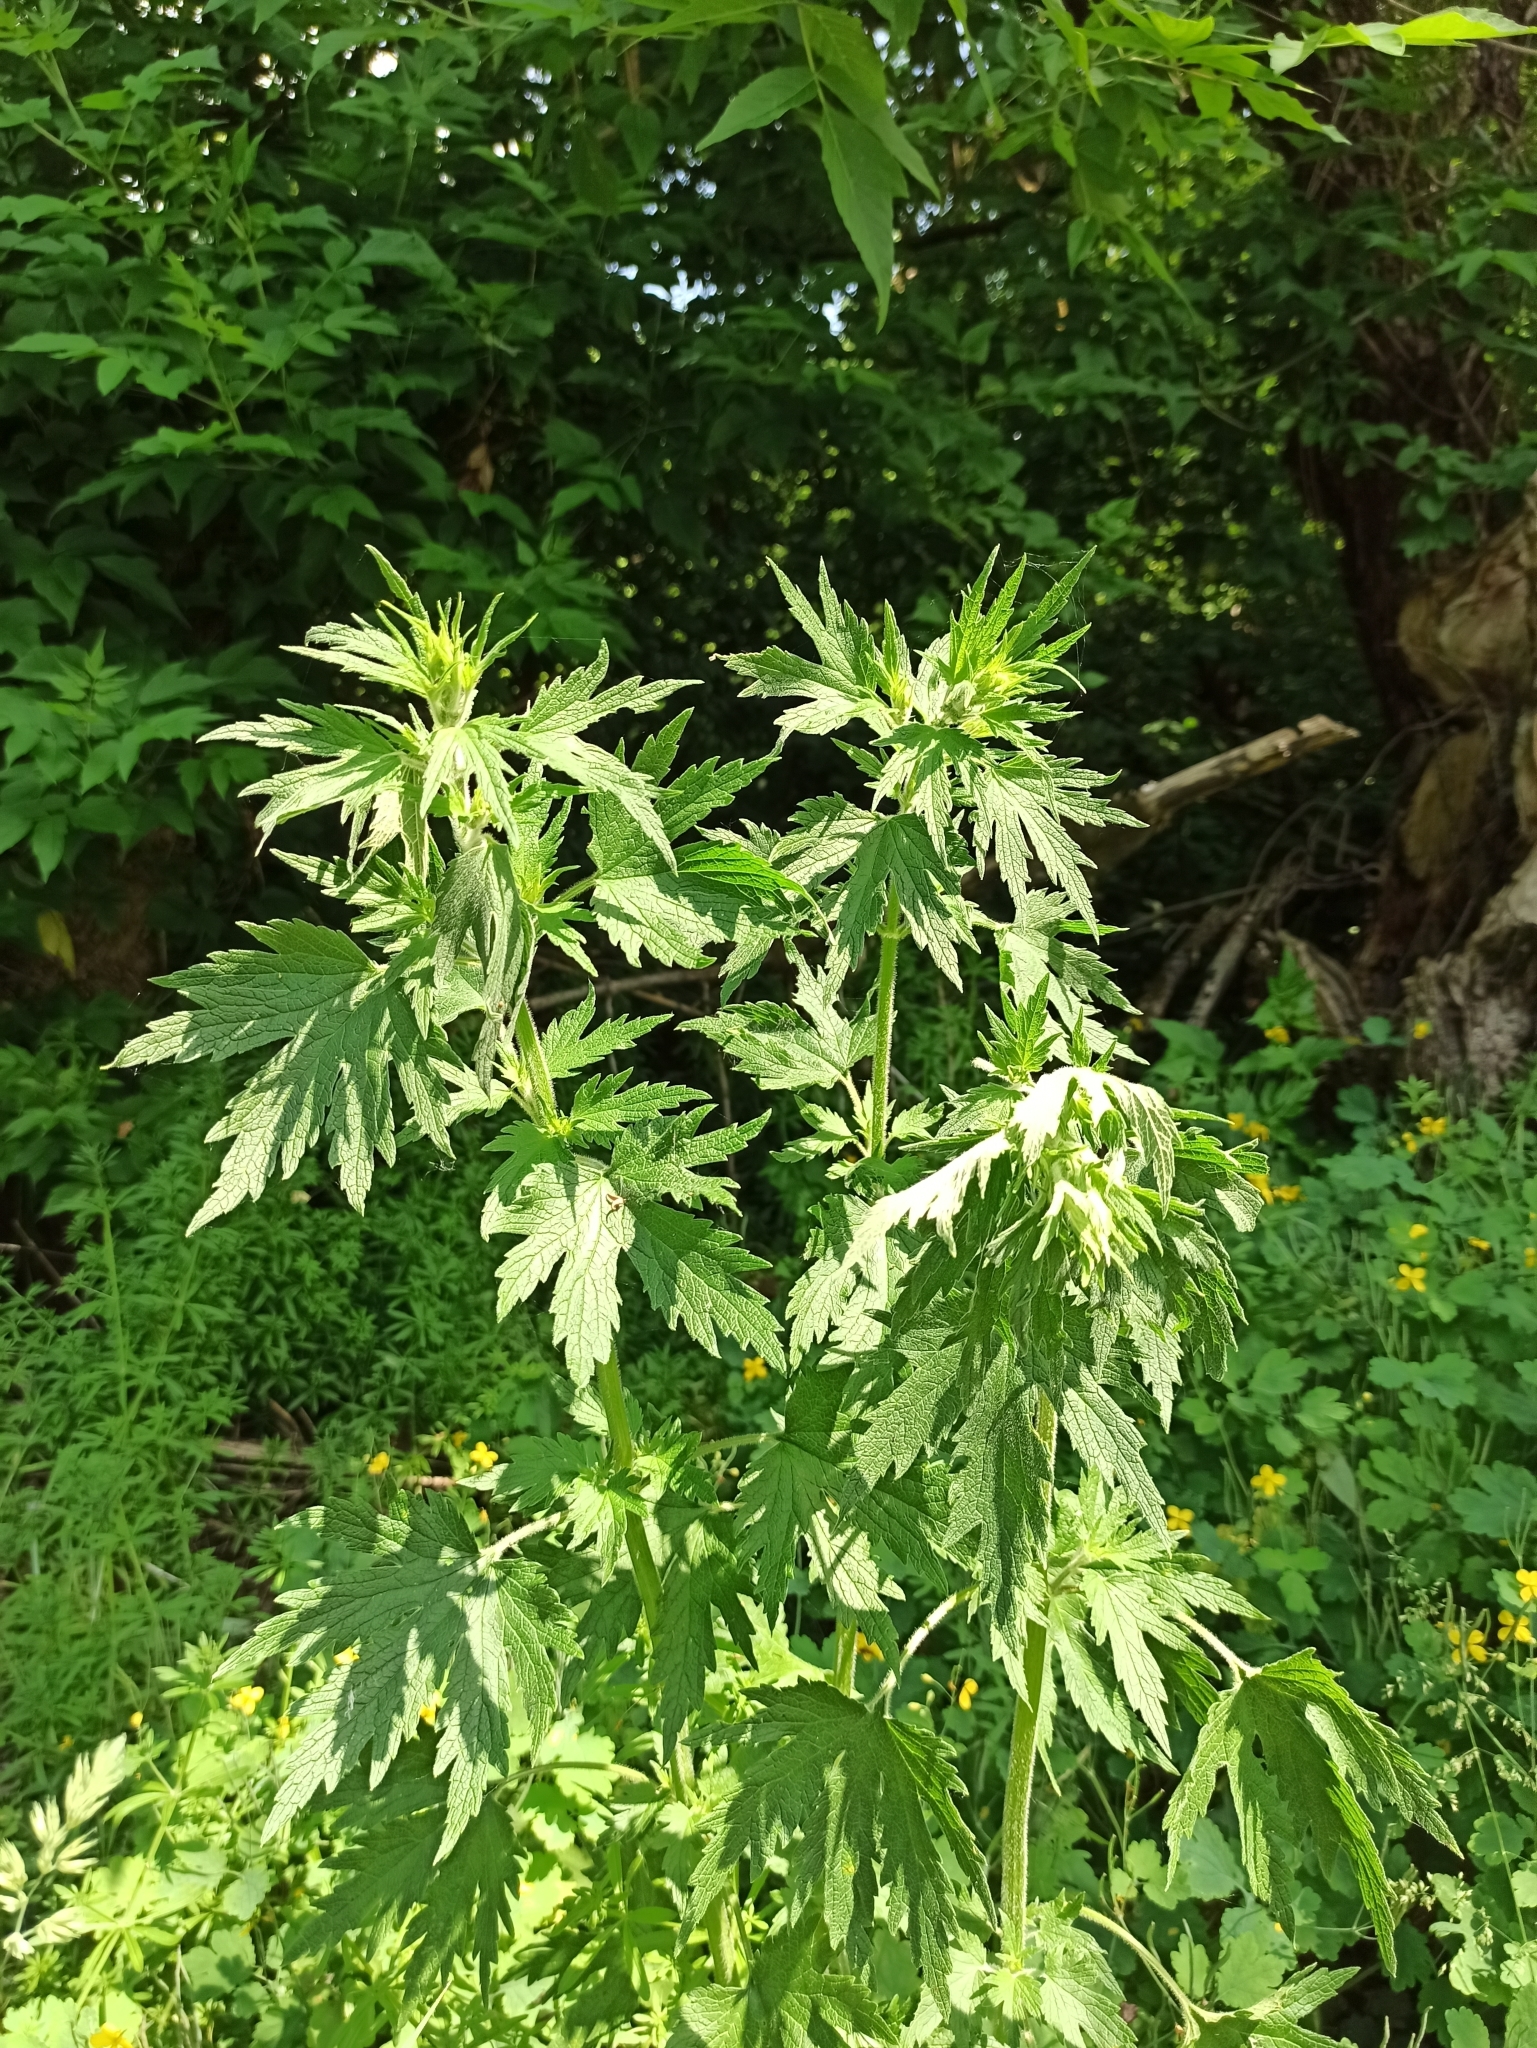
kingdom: Plantae
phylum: Tracheophyta
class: Magnoliopsida
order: Lamiales
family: Lamiaceae
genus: Leonurus
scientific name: Leonurus quinquelobatus
